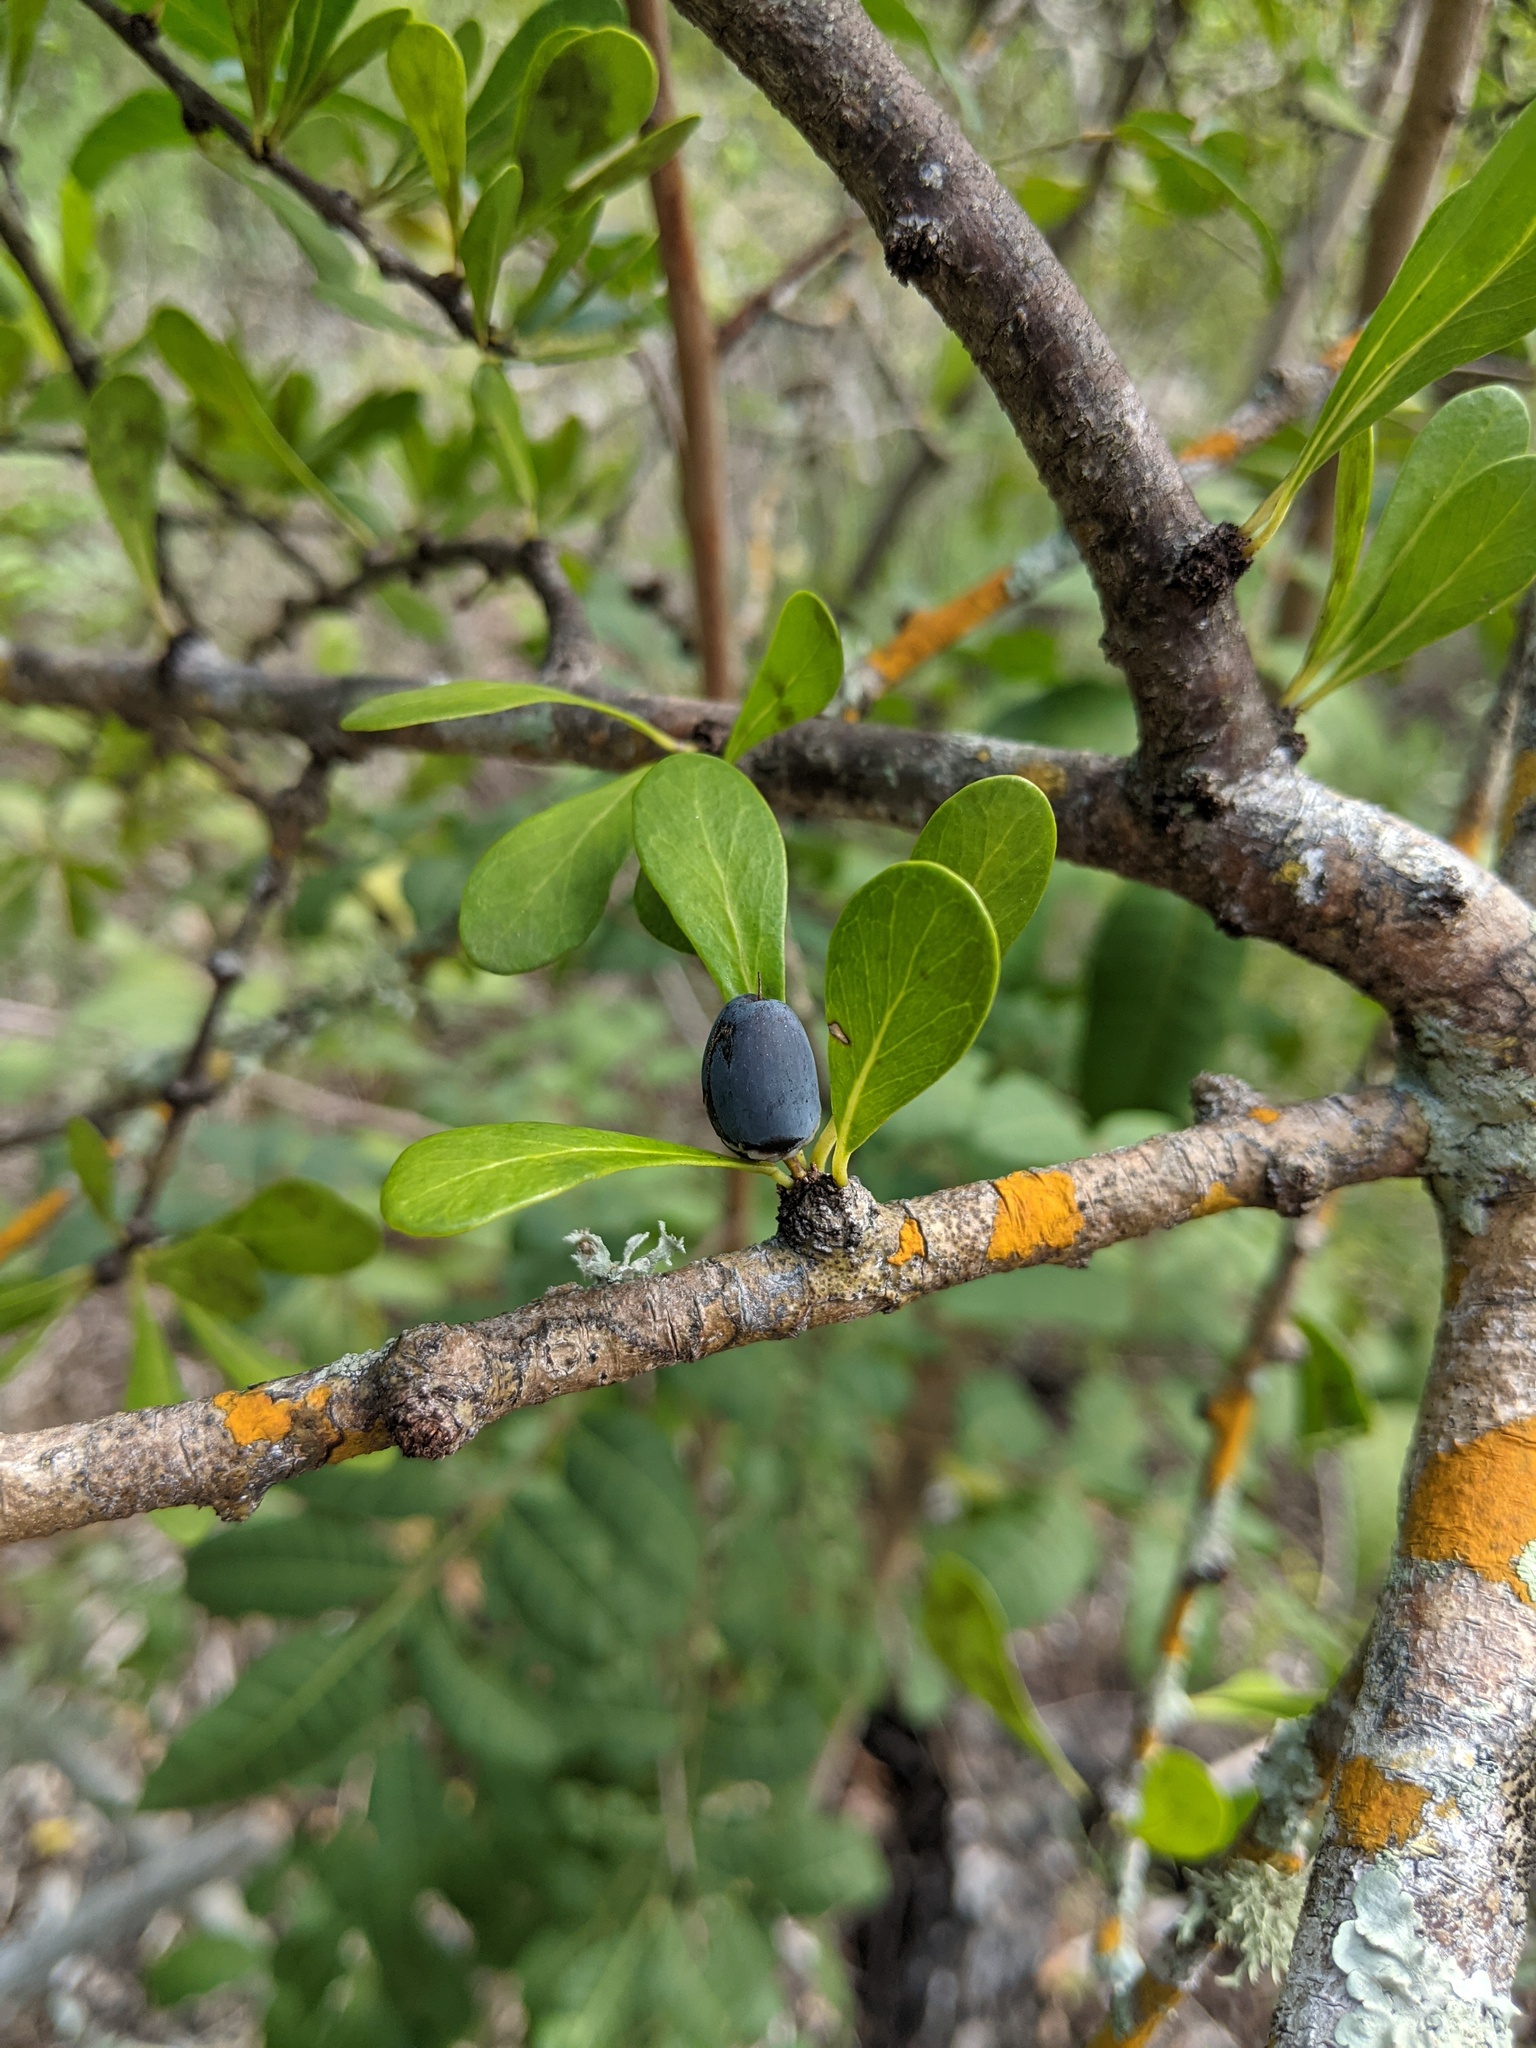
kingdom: Plantae
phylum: Tracheophyta
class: Magnoliopsida
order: Ericales
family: Sapotaceae
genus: Sideroxylon
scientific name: Sideroxylon celastrinum
